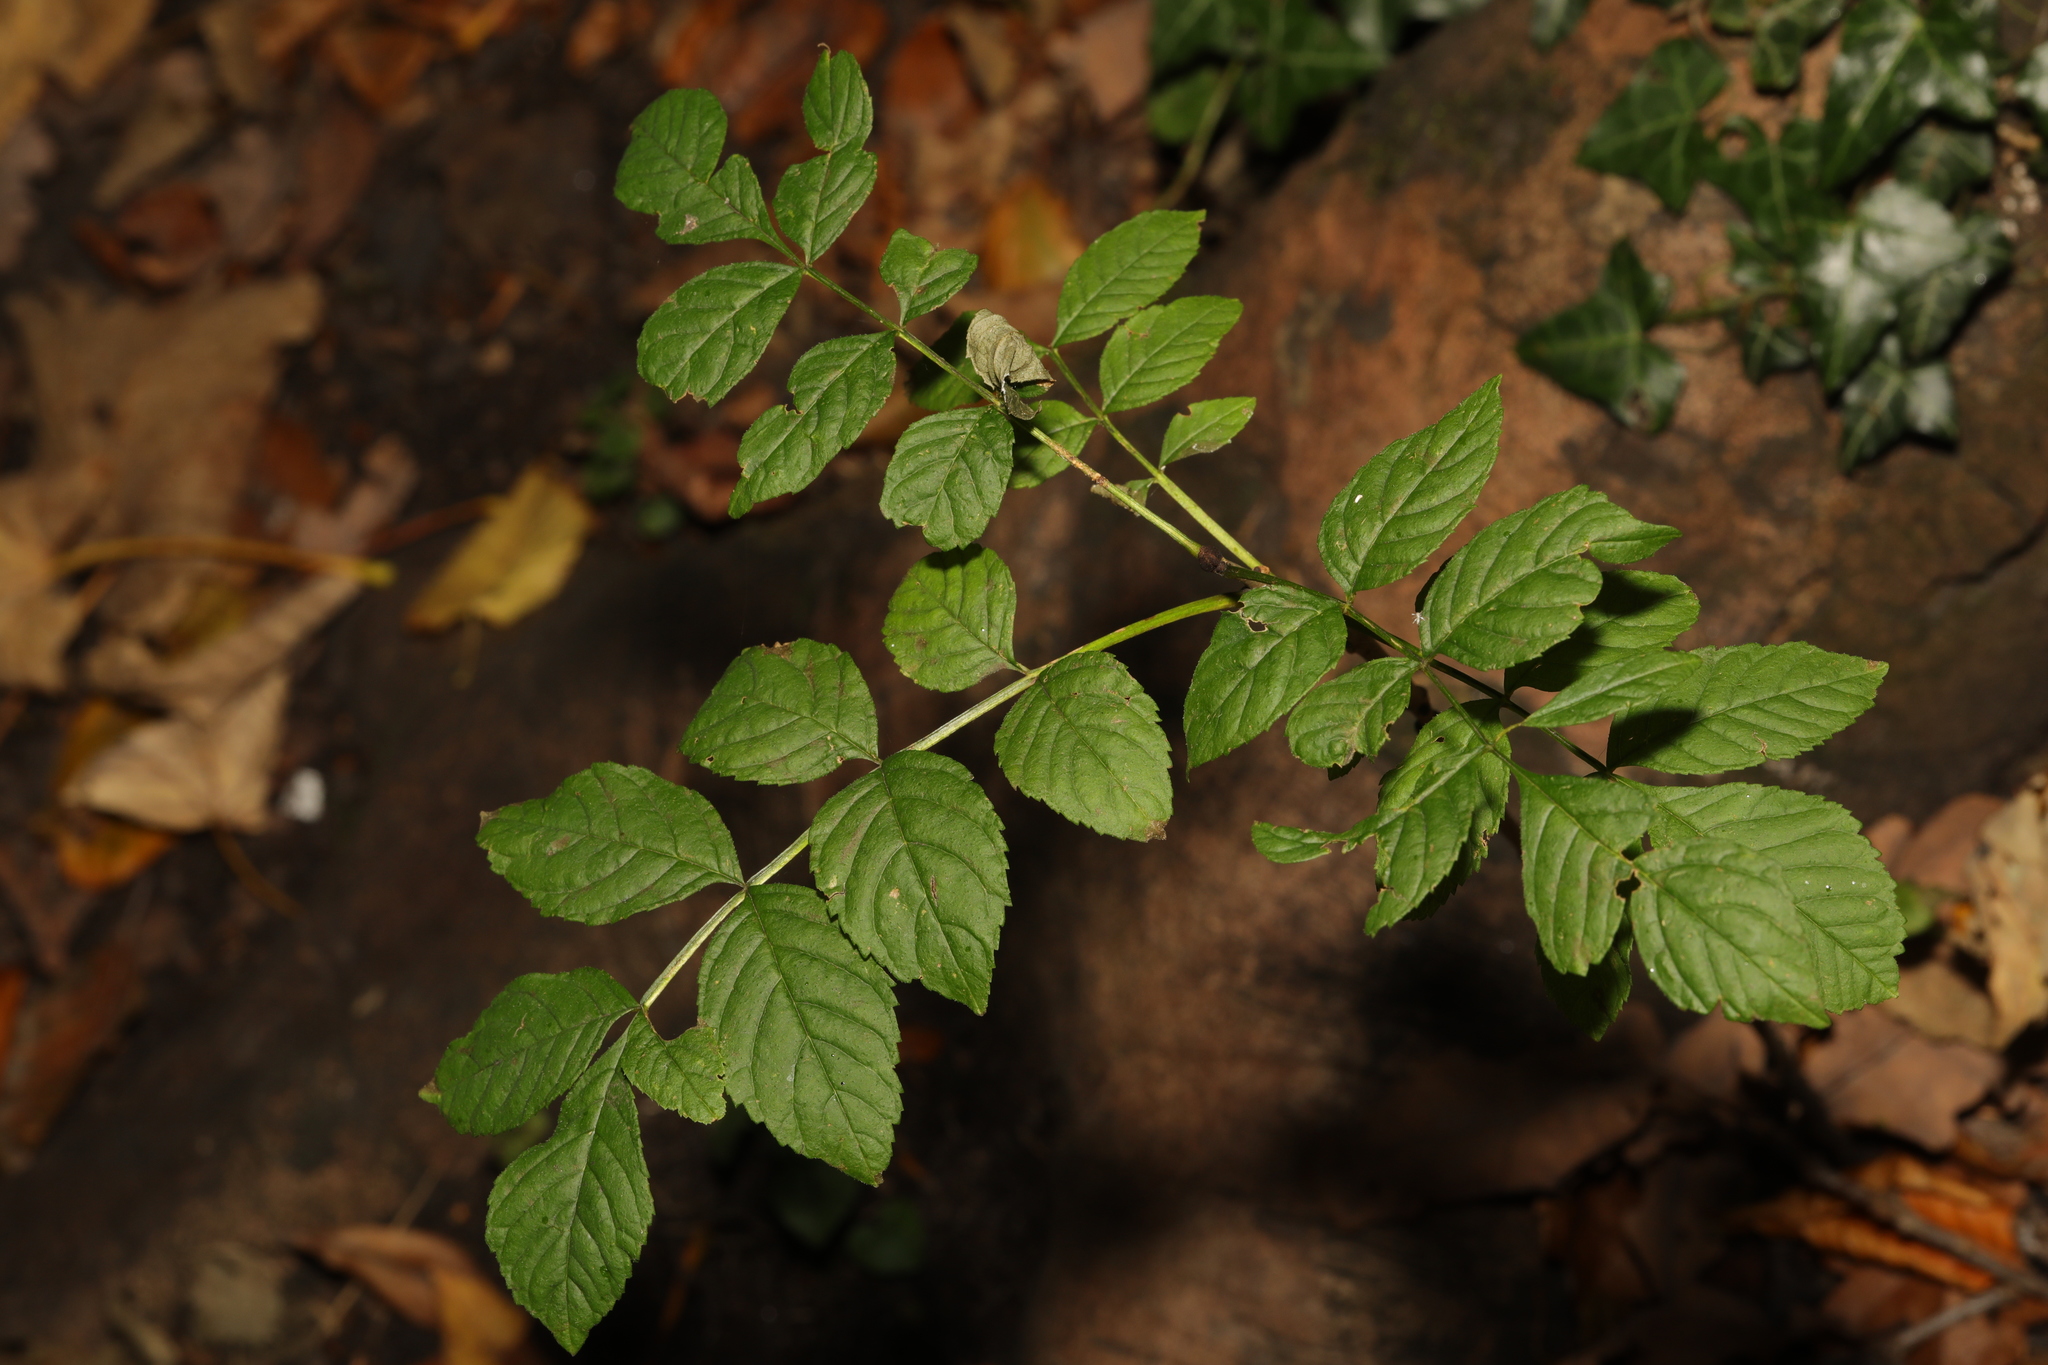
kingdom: Plantae
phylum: Tracheophyta
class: Magnoliopsida
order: Lamiales
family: Oleaceae
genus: Fraxinus
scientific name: Fraxinus excelsior
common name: European ash
